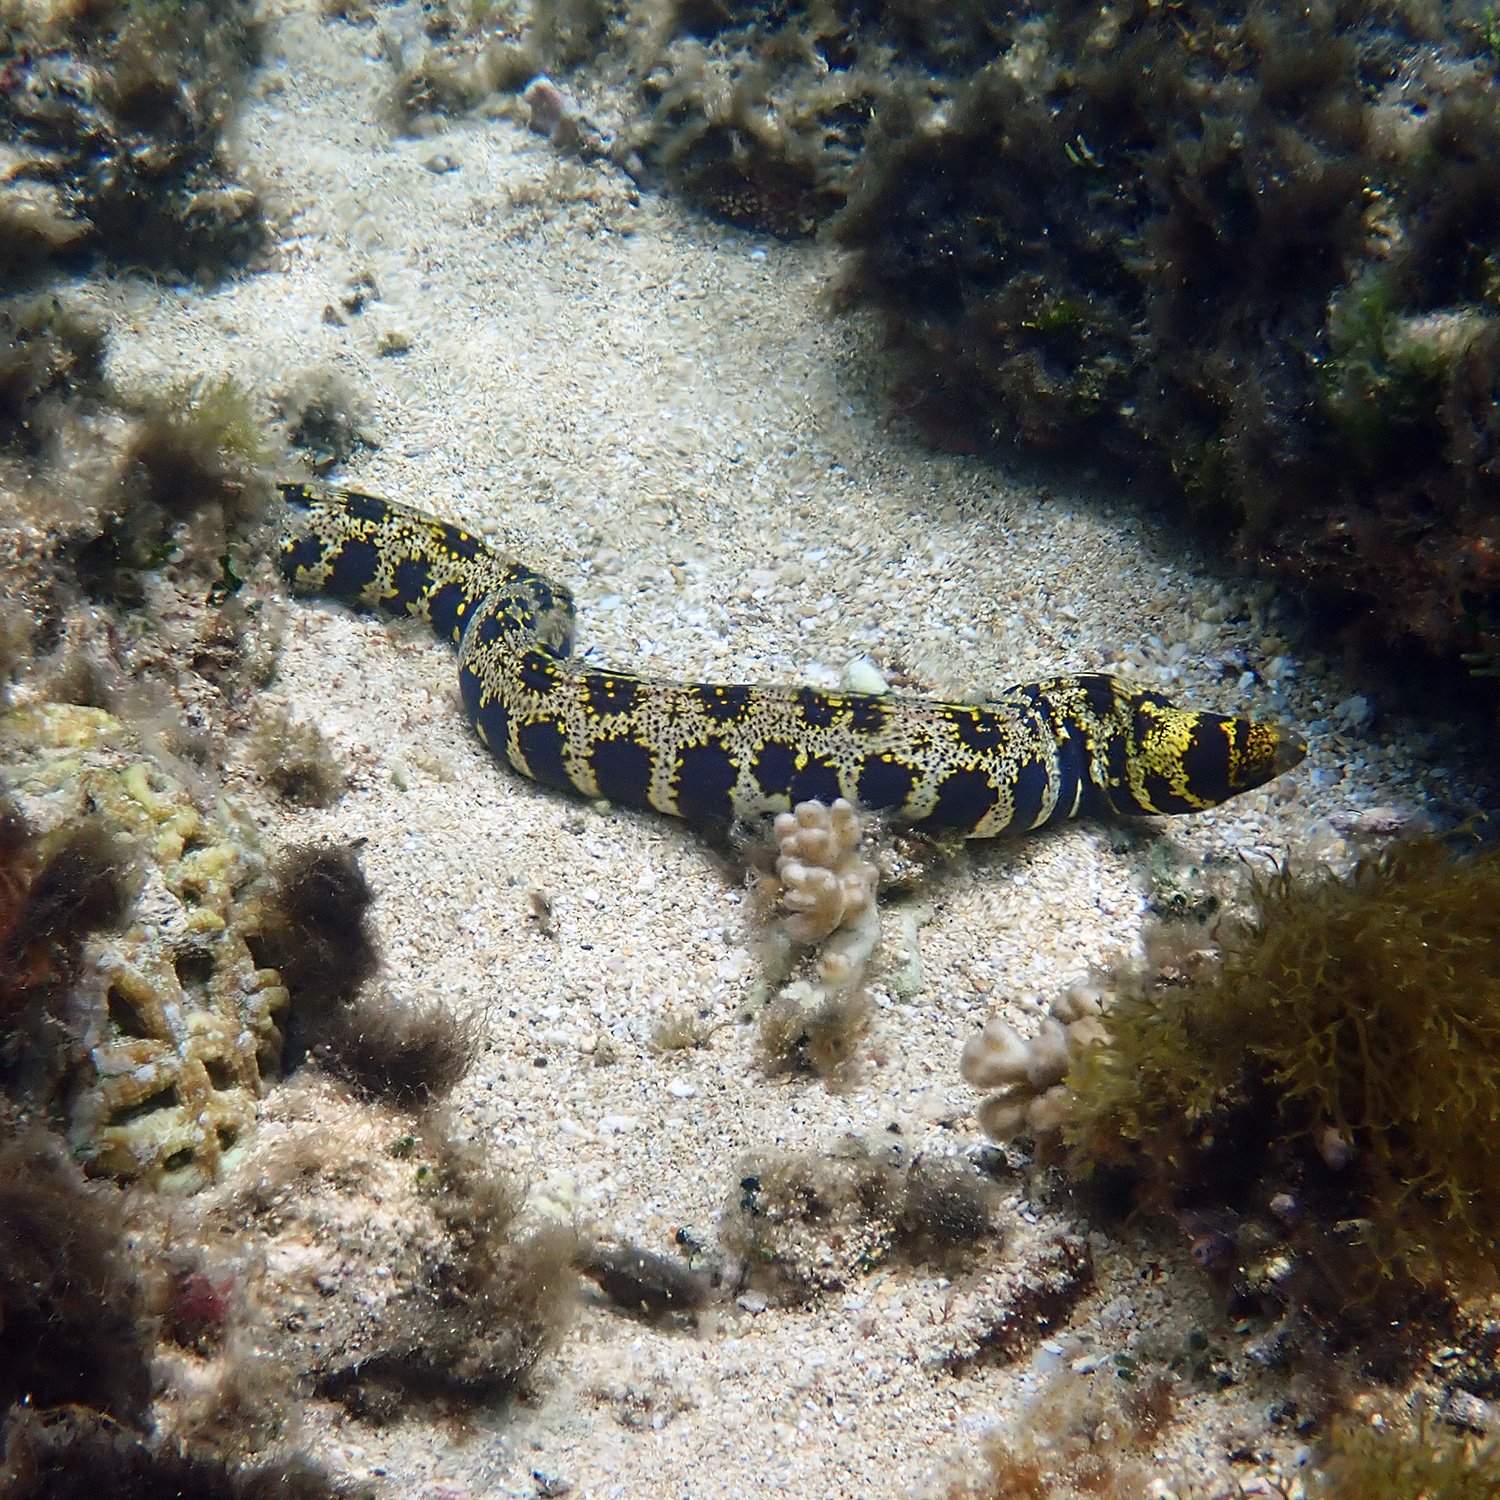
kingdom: Animalia
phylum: Chordata
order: Anguilliformes
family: Muraenidae
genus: Echidna
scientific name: Echidna nebulosa
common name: Snowflake moray
